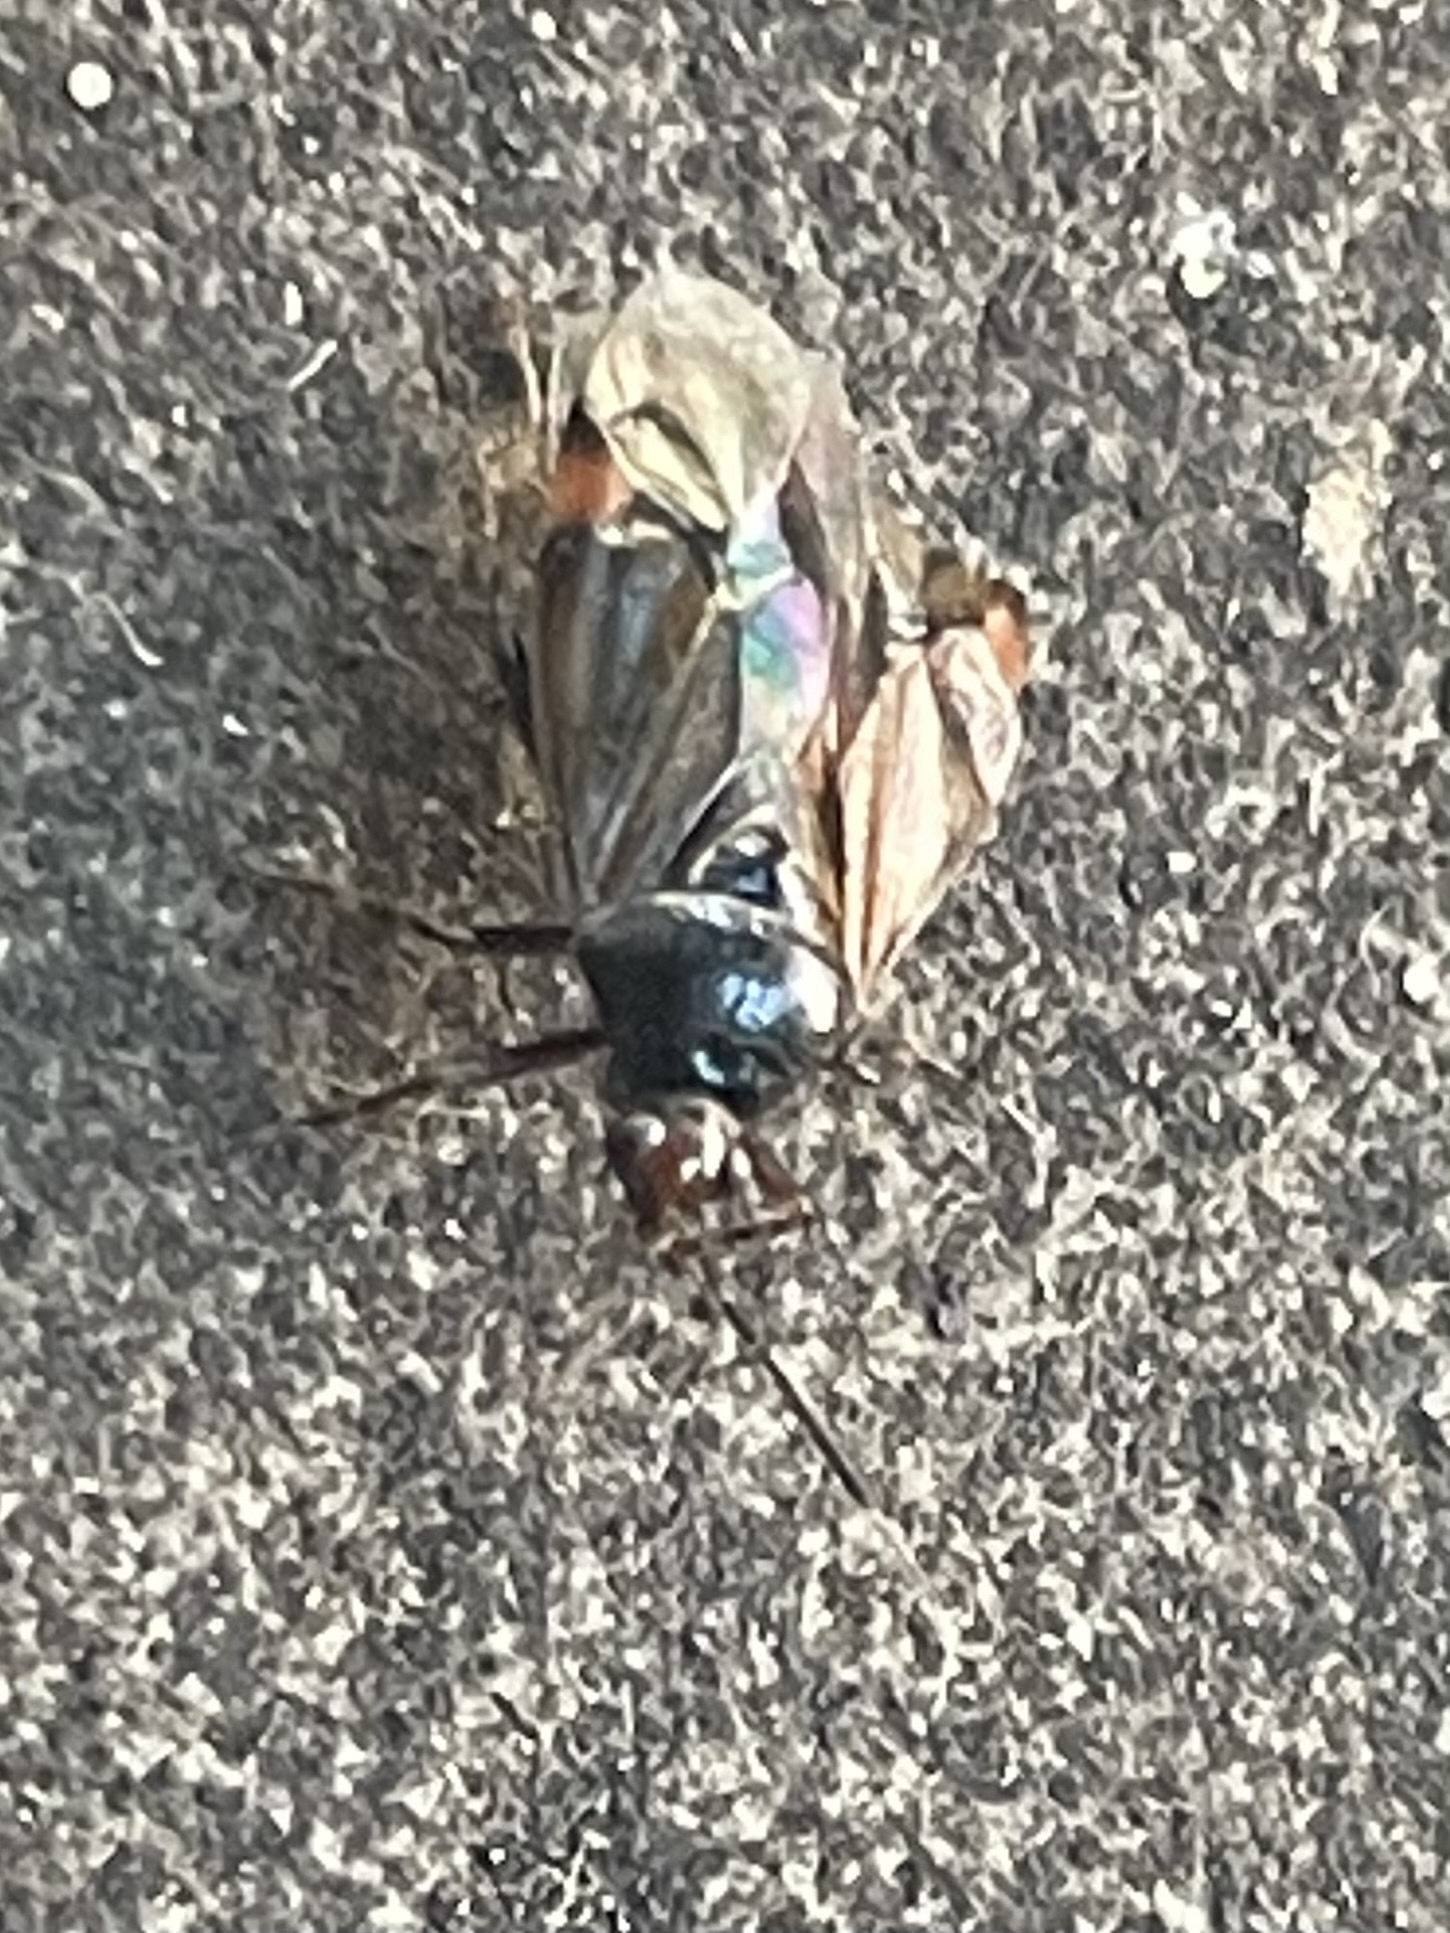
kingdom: Animalia
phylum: Arthropoda
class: Insecta
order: Hemiptera
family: Miridae
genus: Deraeocoris
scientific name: Deraeocoris flavilinea
